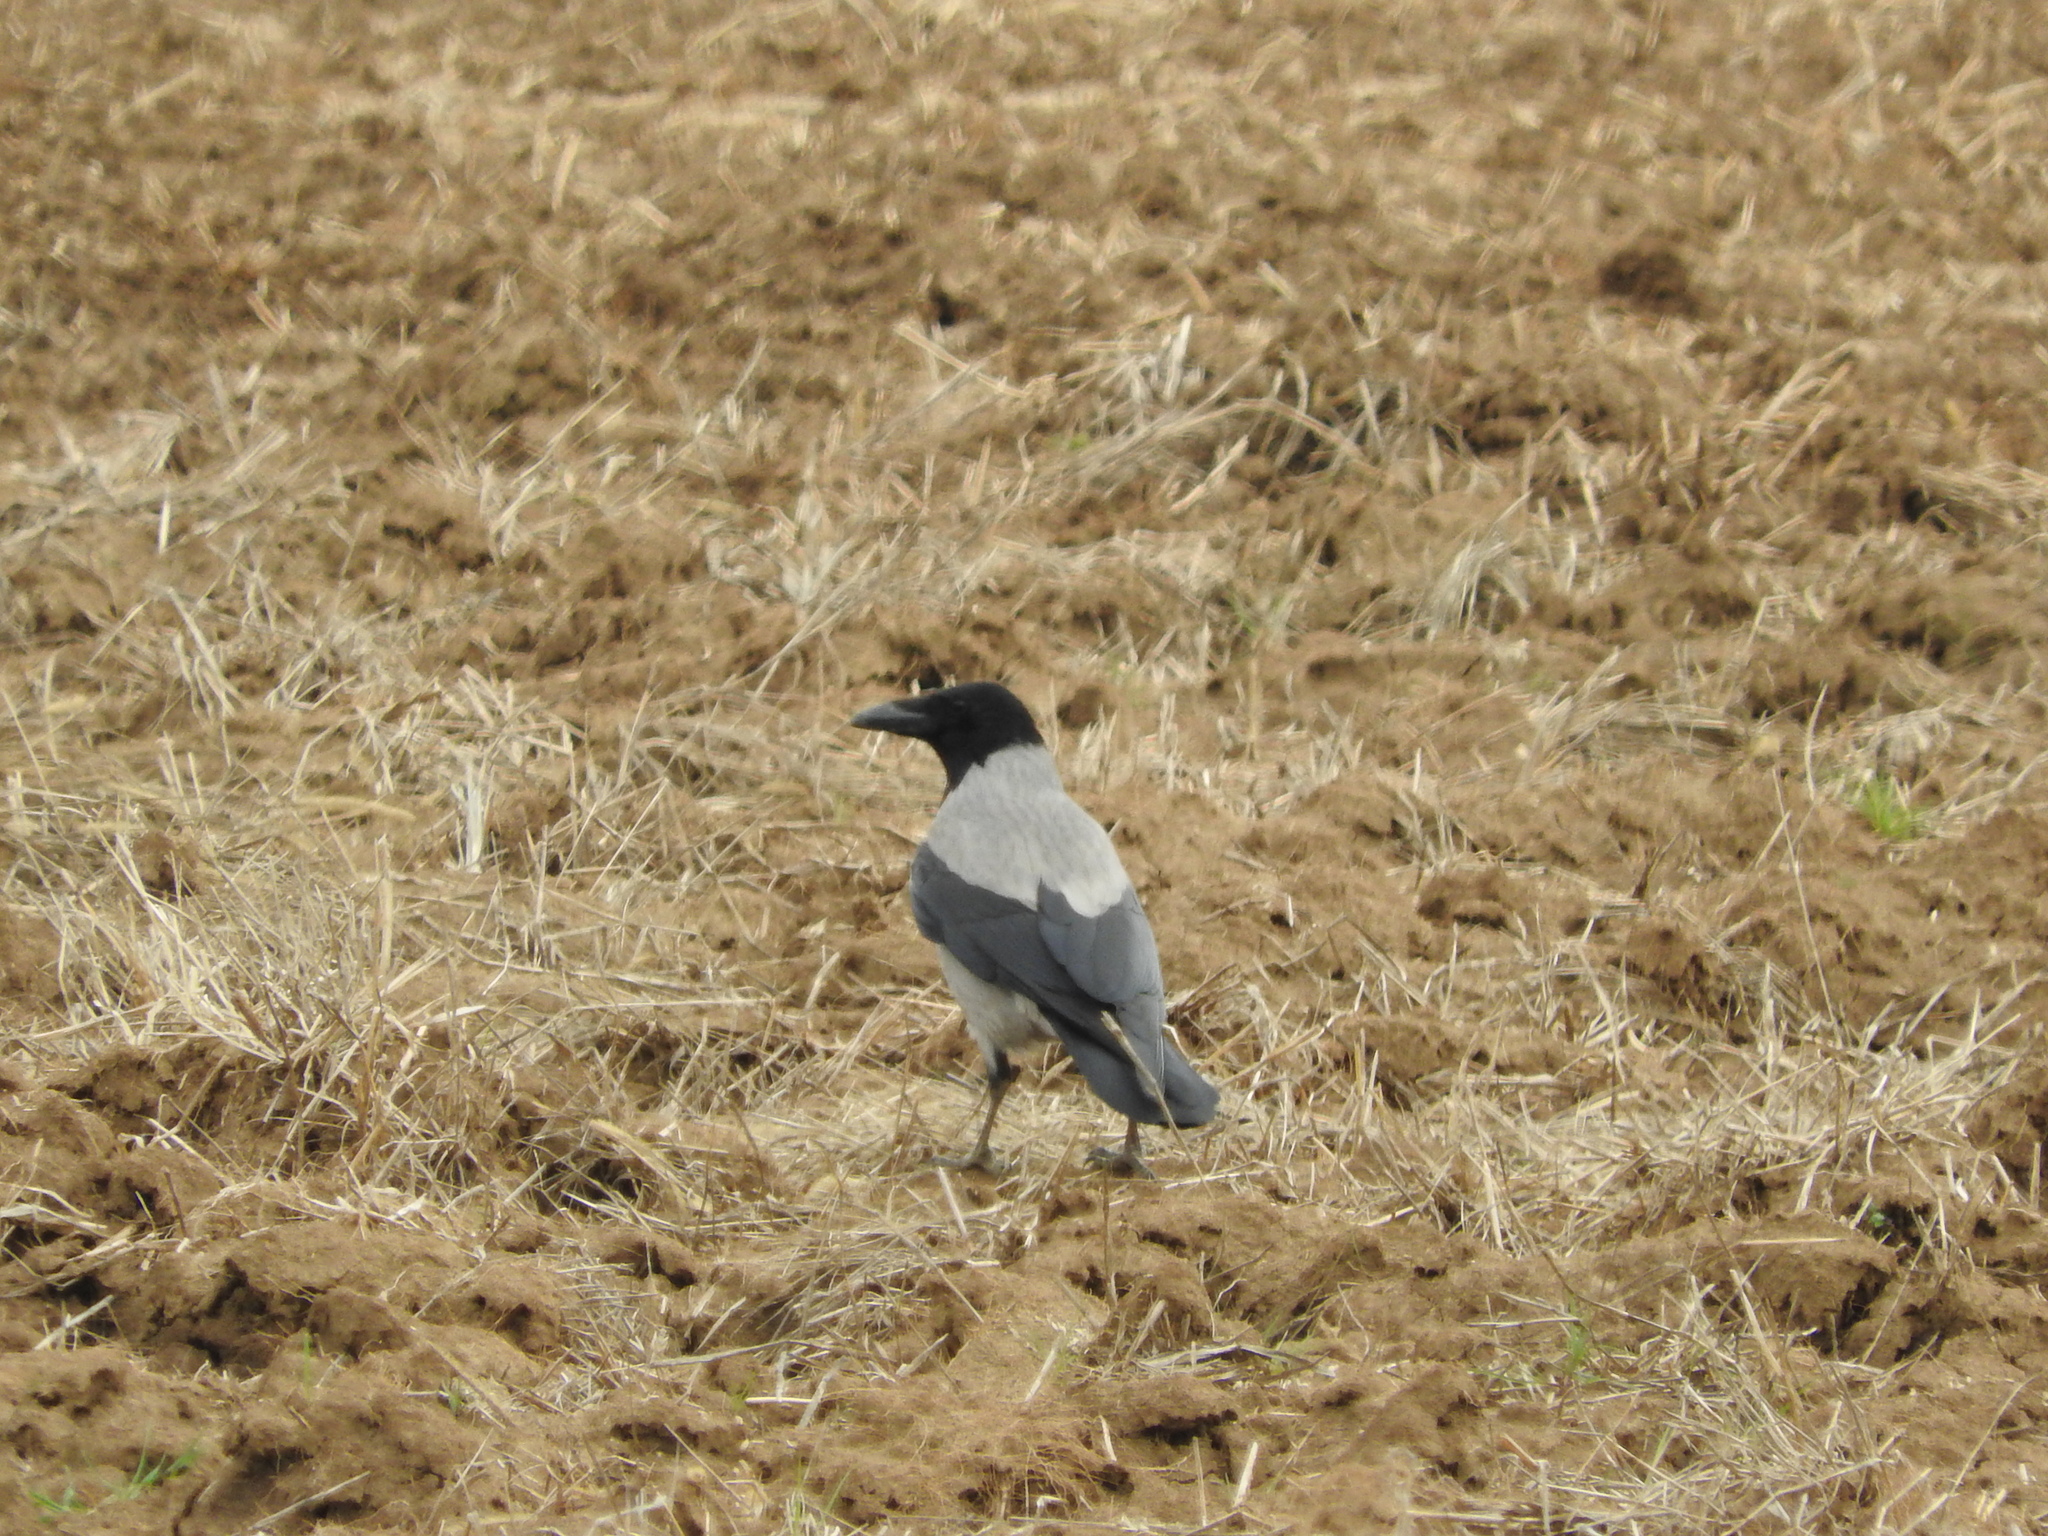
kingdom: Animalia
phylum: Chordata
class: Aves
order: Passeriformes
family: Corvidae
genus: Corvus
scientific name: Corvus cornix
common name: Hooded crow
